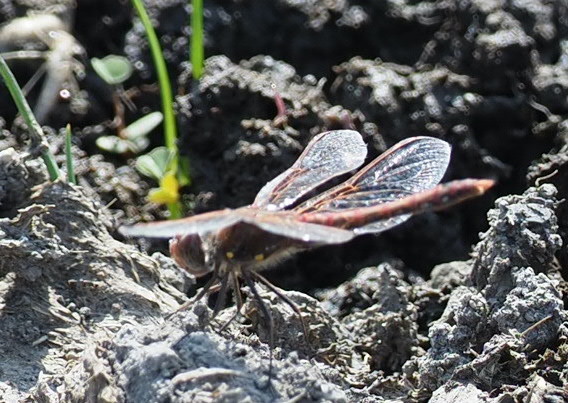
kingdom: Animalia
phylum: Arthropoda
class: Insecta
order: Odonata
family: Libellulidae
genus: Sympetrum
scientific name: Sympetrum corruptum
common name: Variegated meadowhawk
